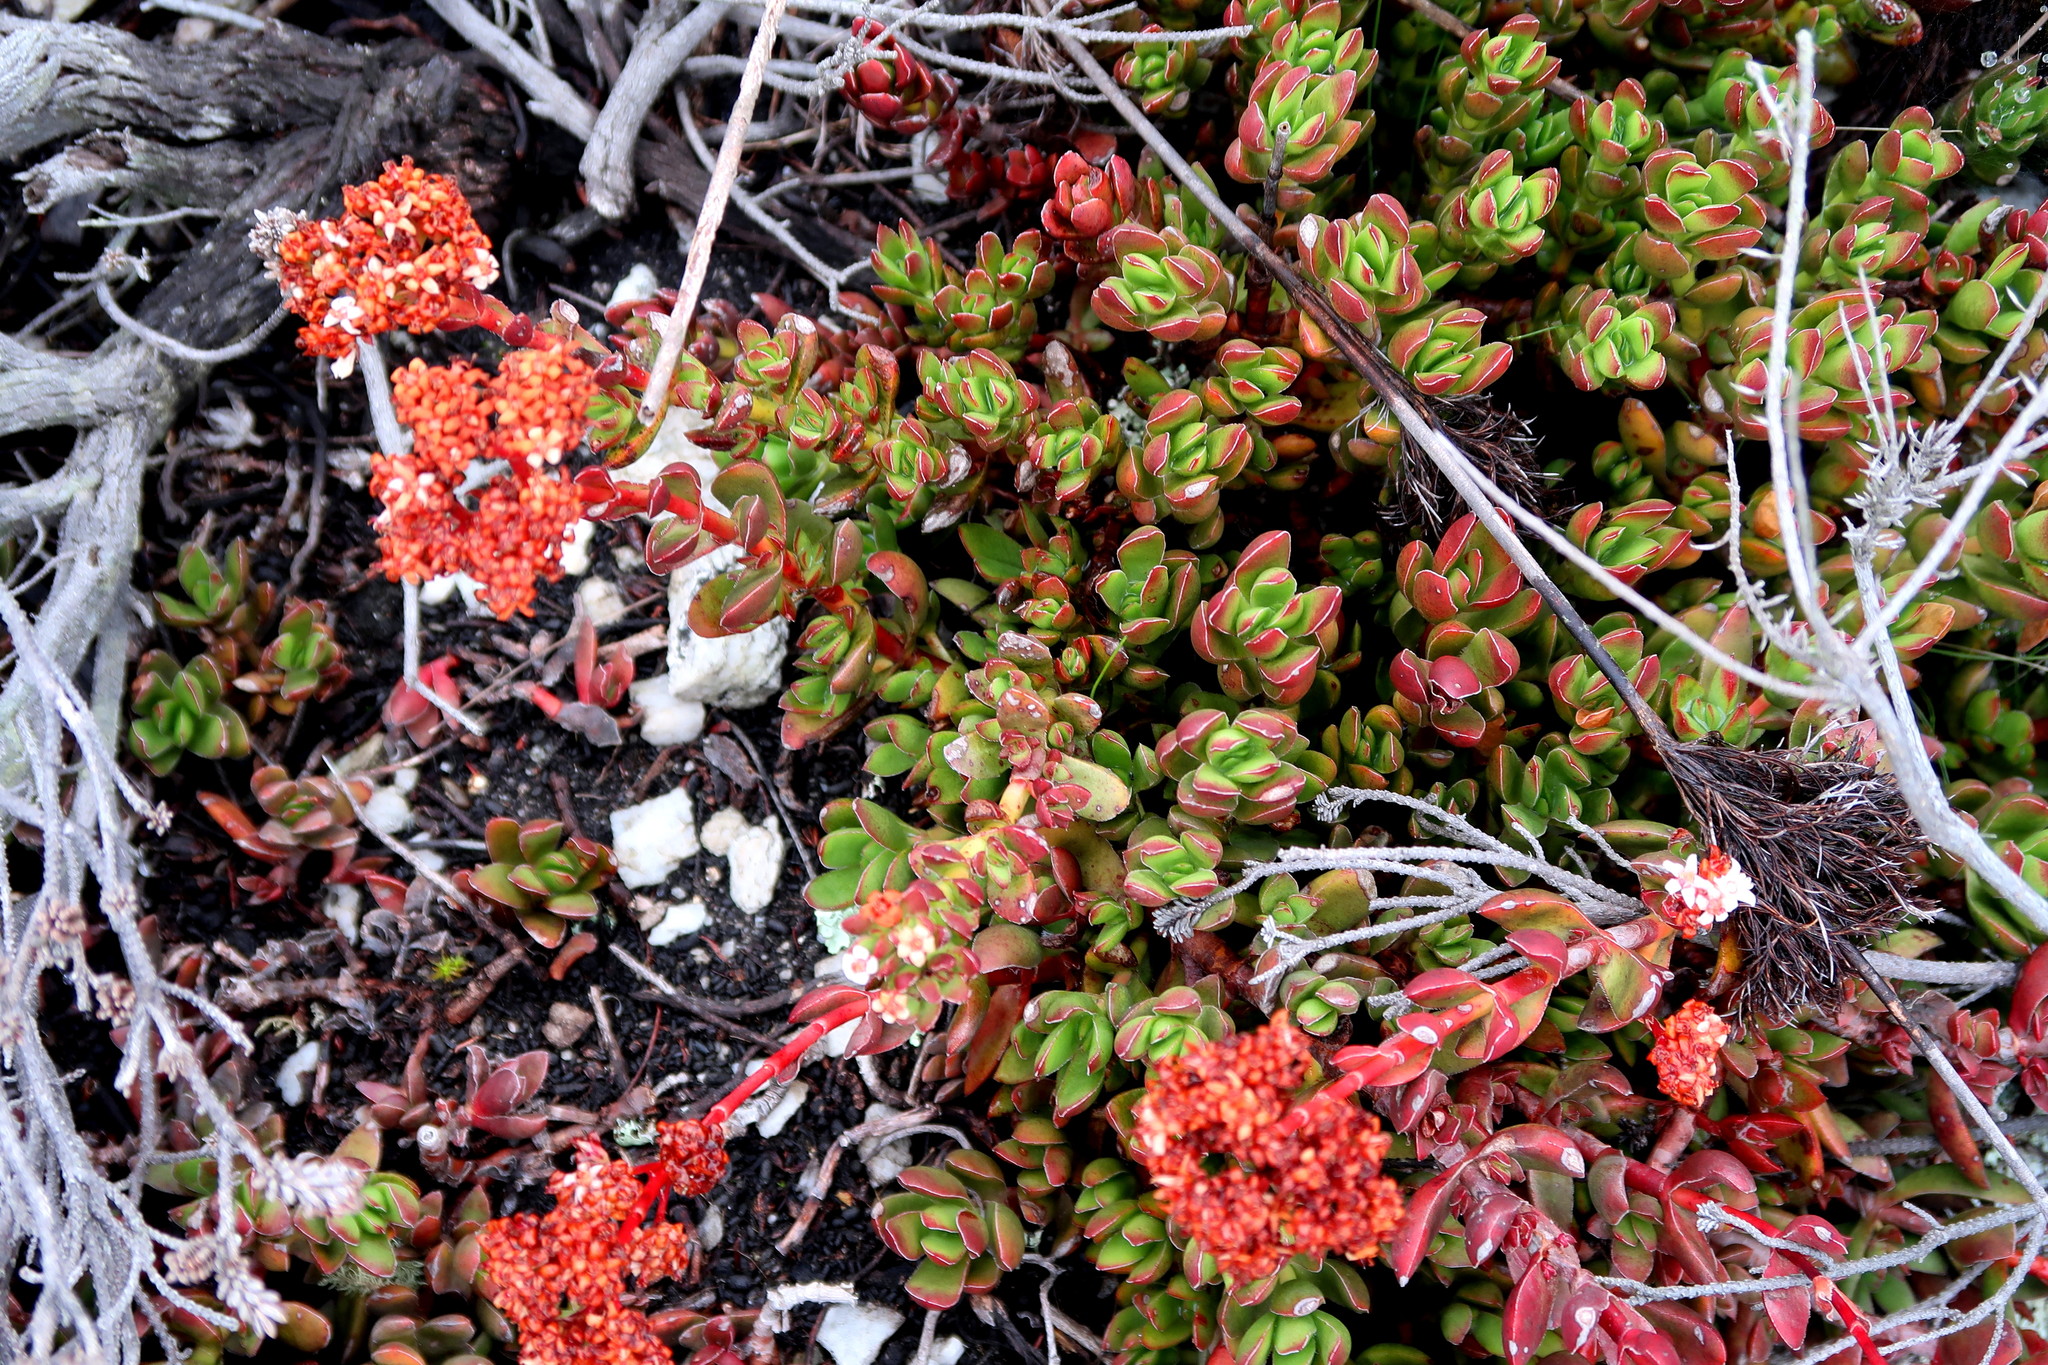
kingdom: Plantae
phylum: Tracheophyta
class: Magnoliopsida
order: Saxifragales
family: Crassulaceae
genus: Crassula
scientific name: Crassula rubricaulis
